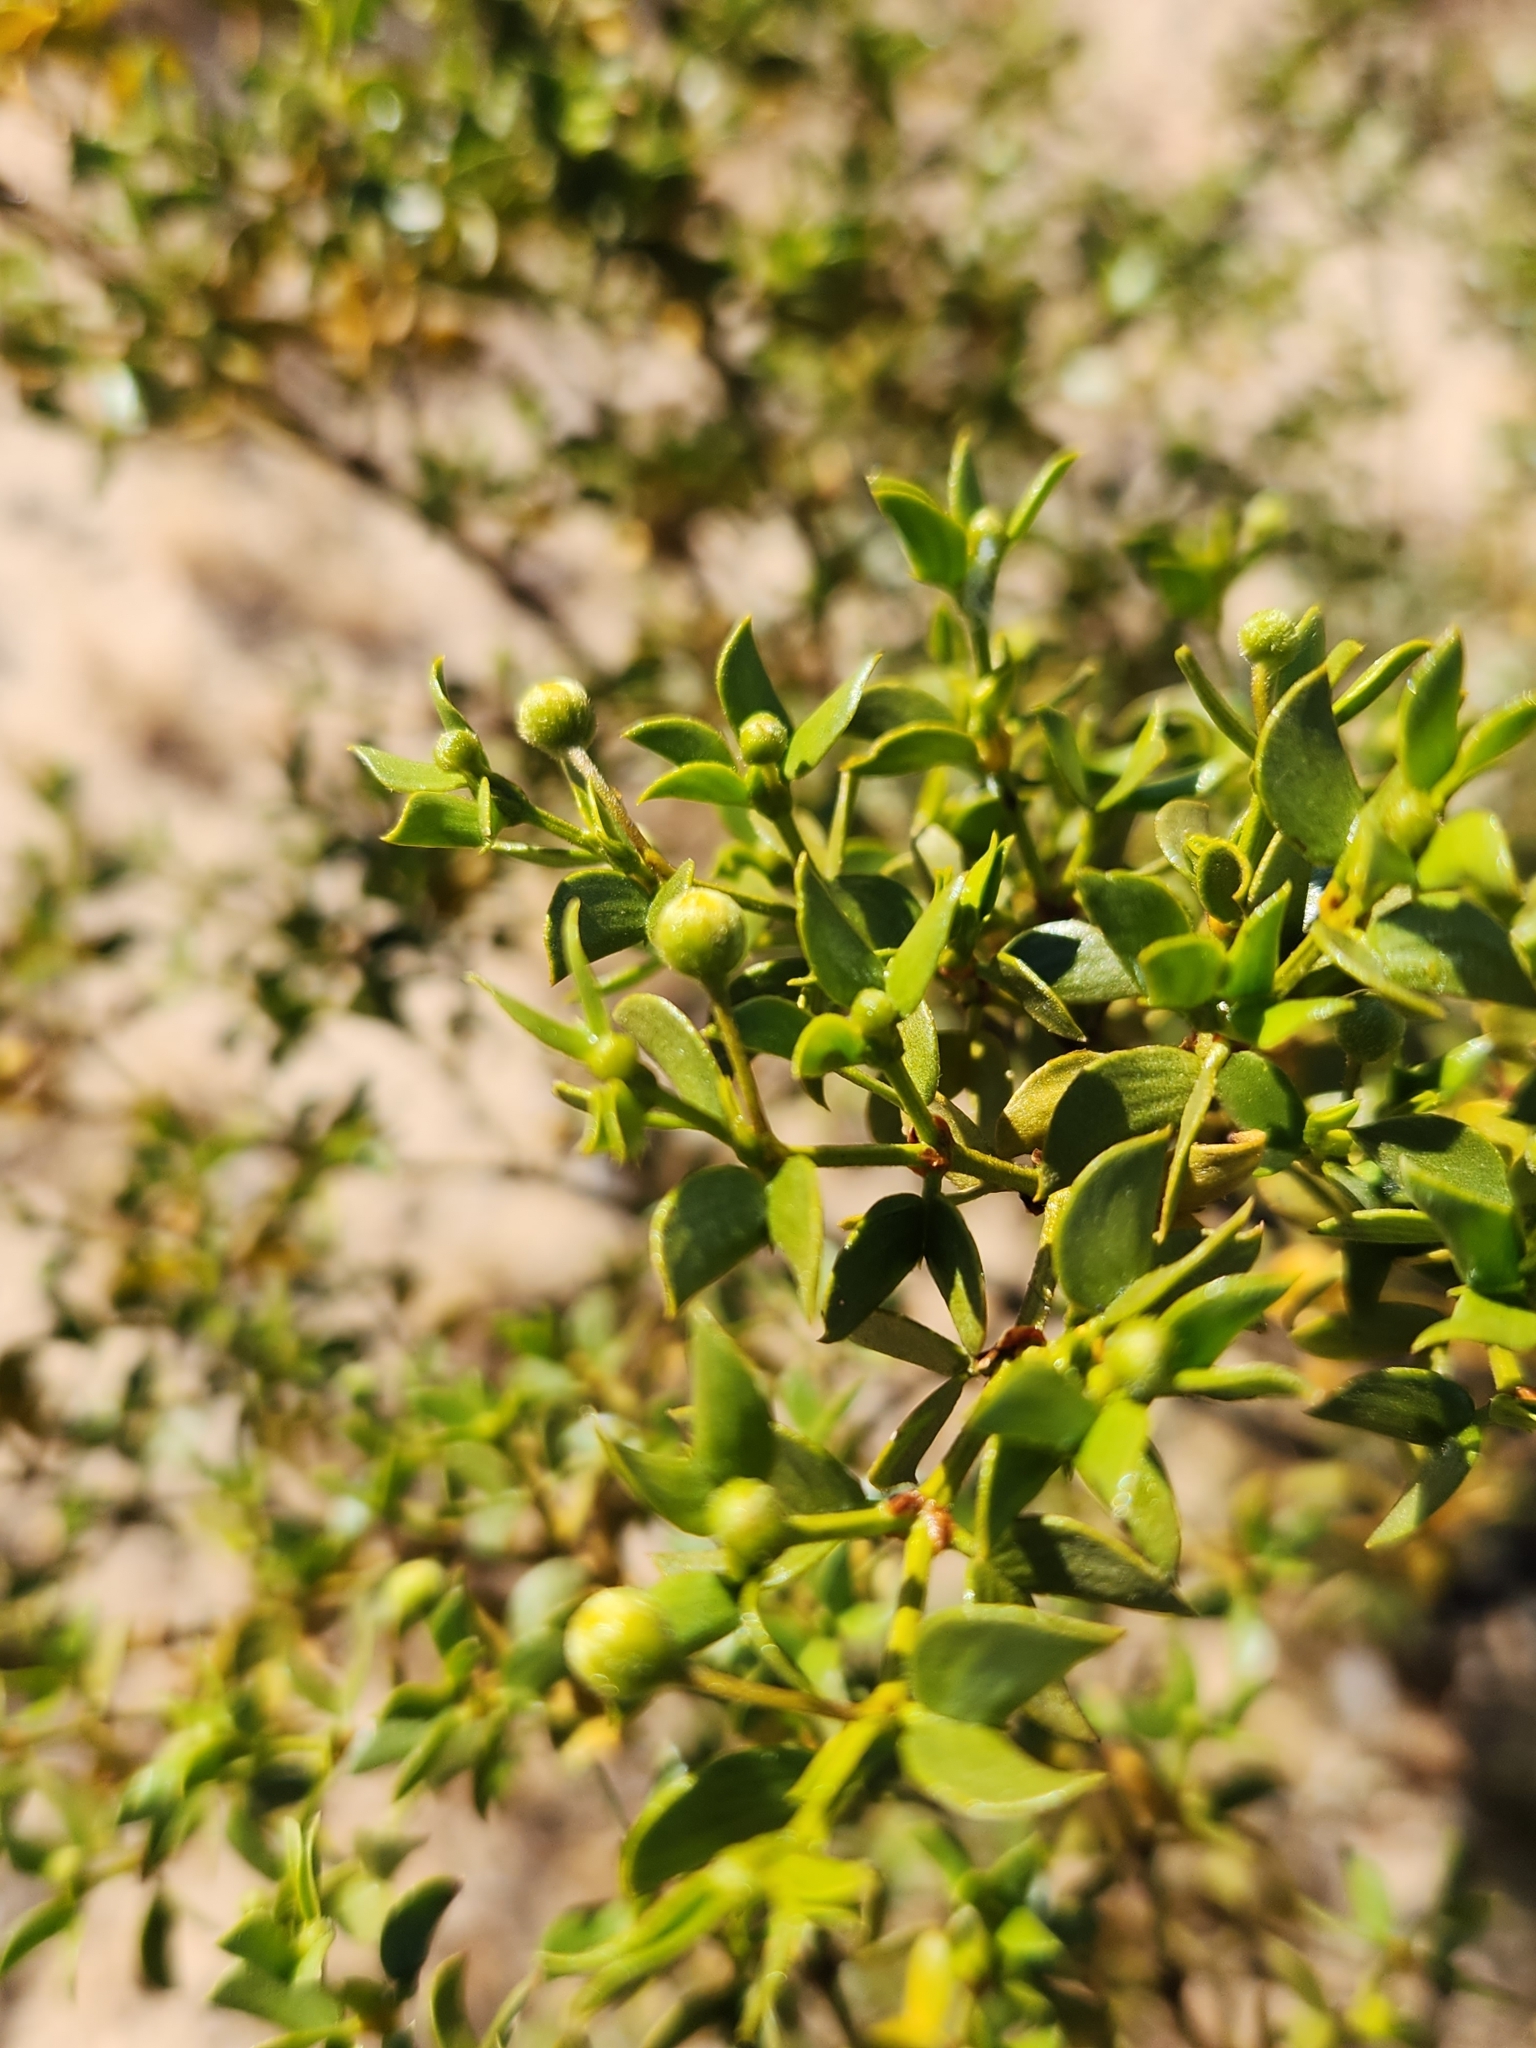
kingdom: Plantae
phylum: Tracheophyta
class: Magnoliopsida
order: Zygophyllales
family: Zygophyllaceae
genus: Larrea
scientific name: Larrea tridentata
